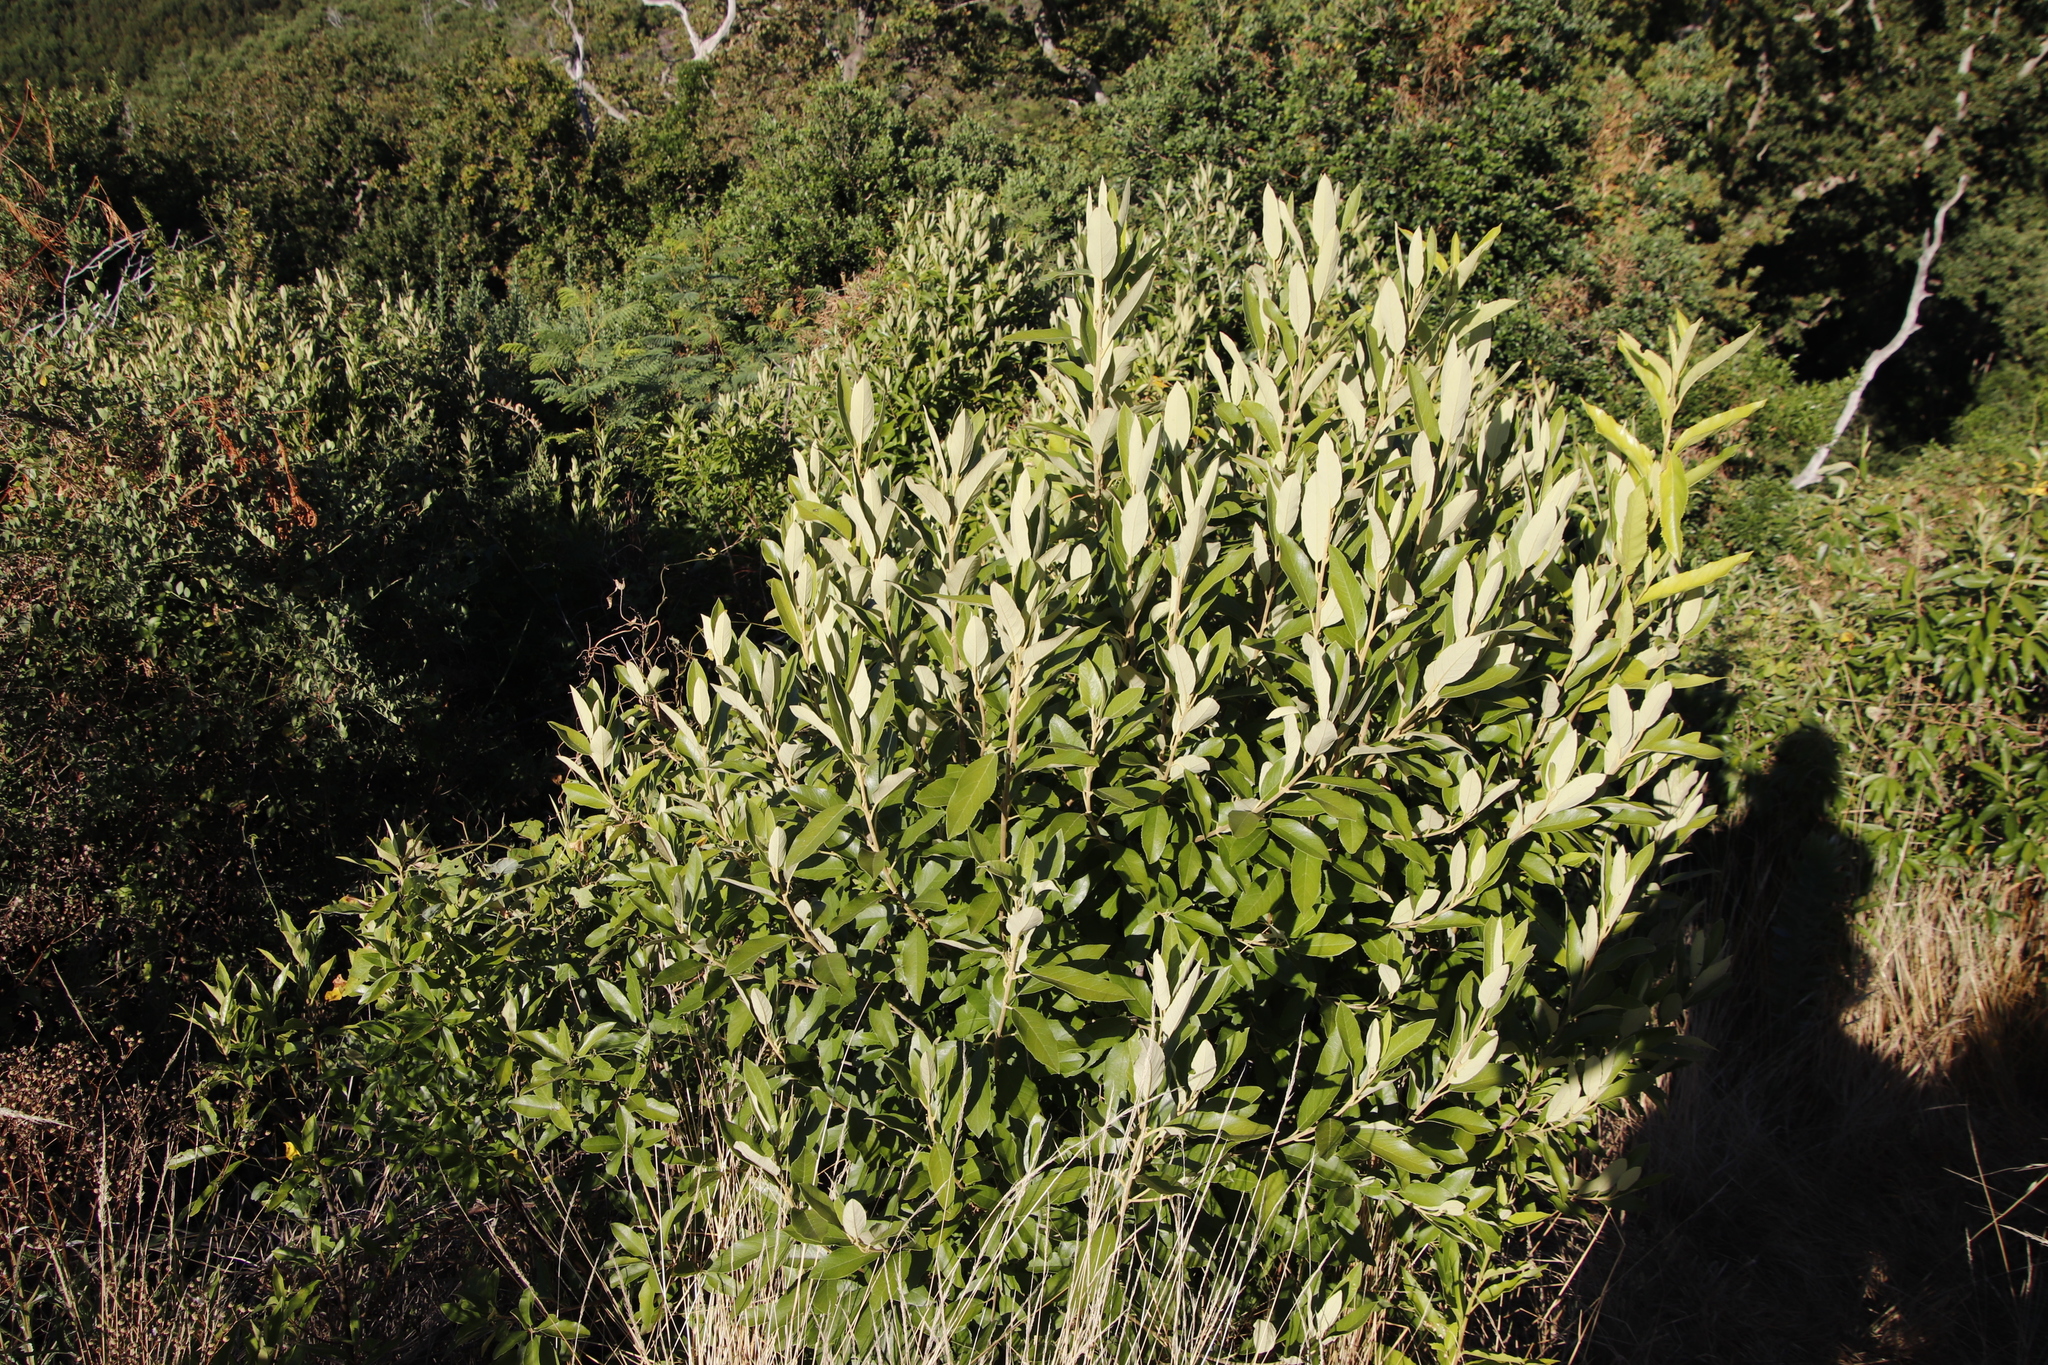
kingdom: Plantae
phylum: Tracheophyta
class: Magnoliopsida
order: Malpighiales
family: Achariaceae
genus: Kiggelaria
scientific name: Kiggelaria africana
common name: Wild peach
